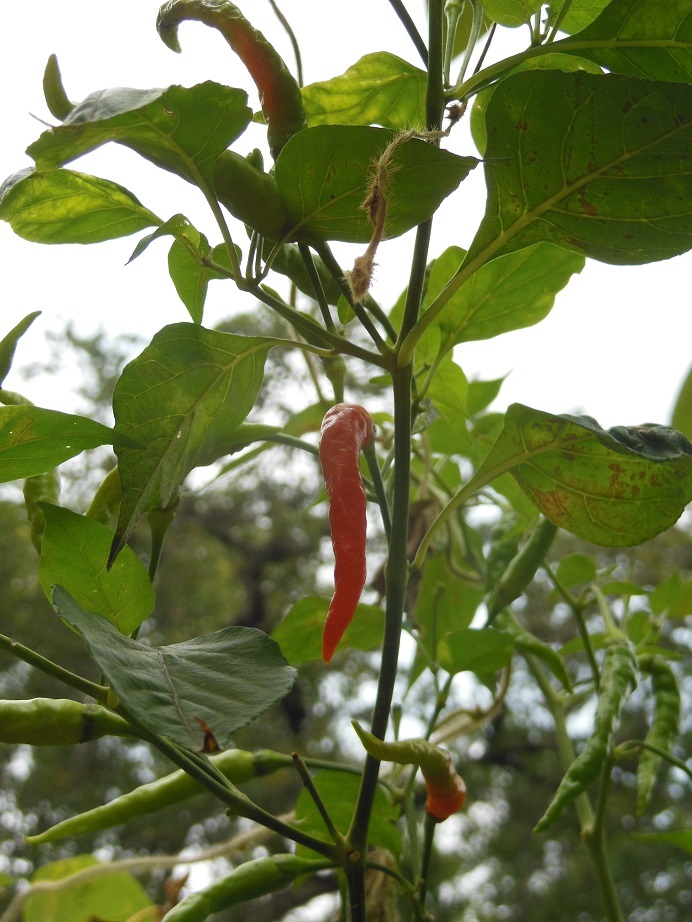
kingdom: Plantae
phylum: Tracheophyta
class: Magnoliopsida
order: Solanales
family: Solanaceae
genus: Capsicum
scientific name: Capsicum annuum
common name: Sweet pepper
